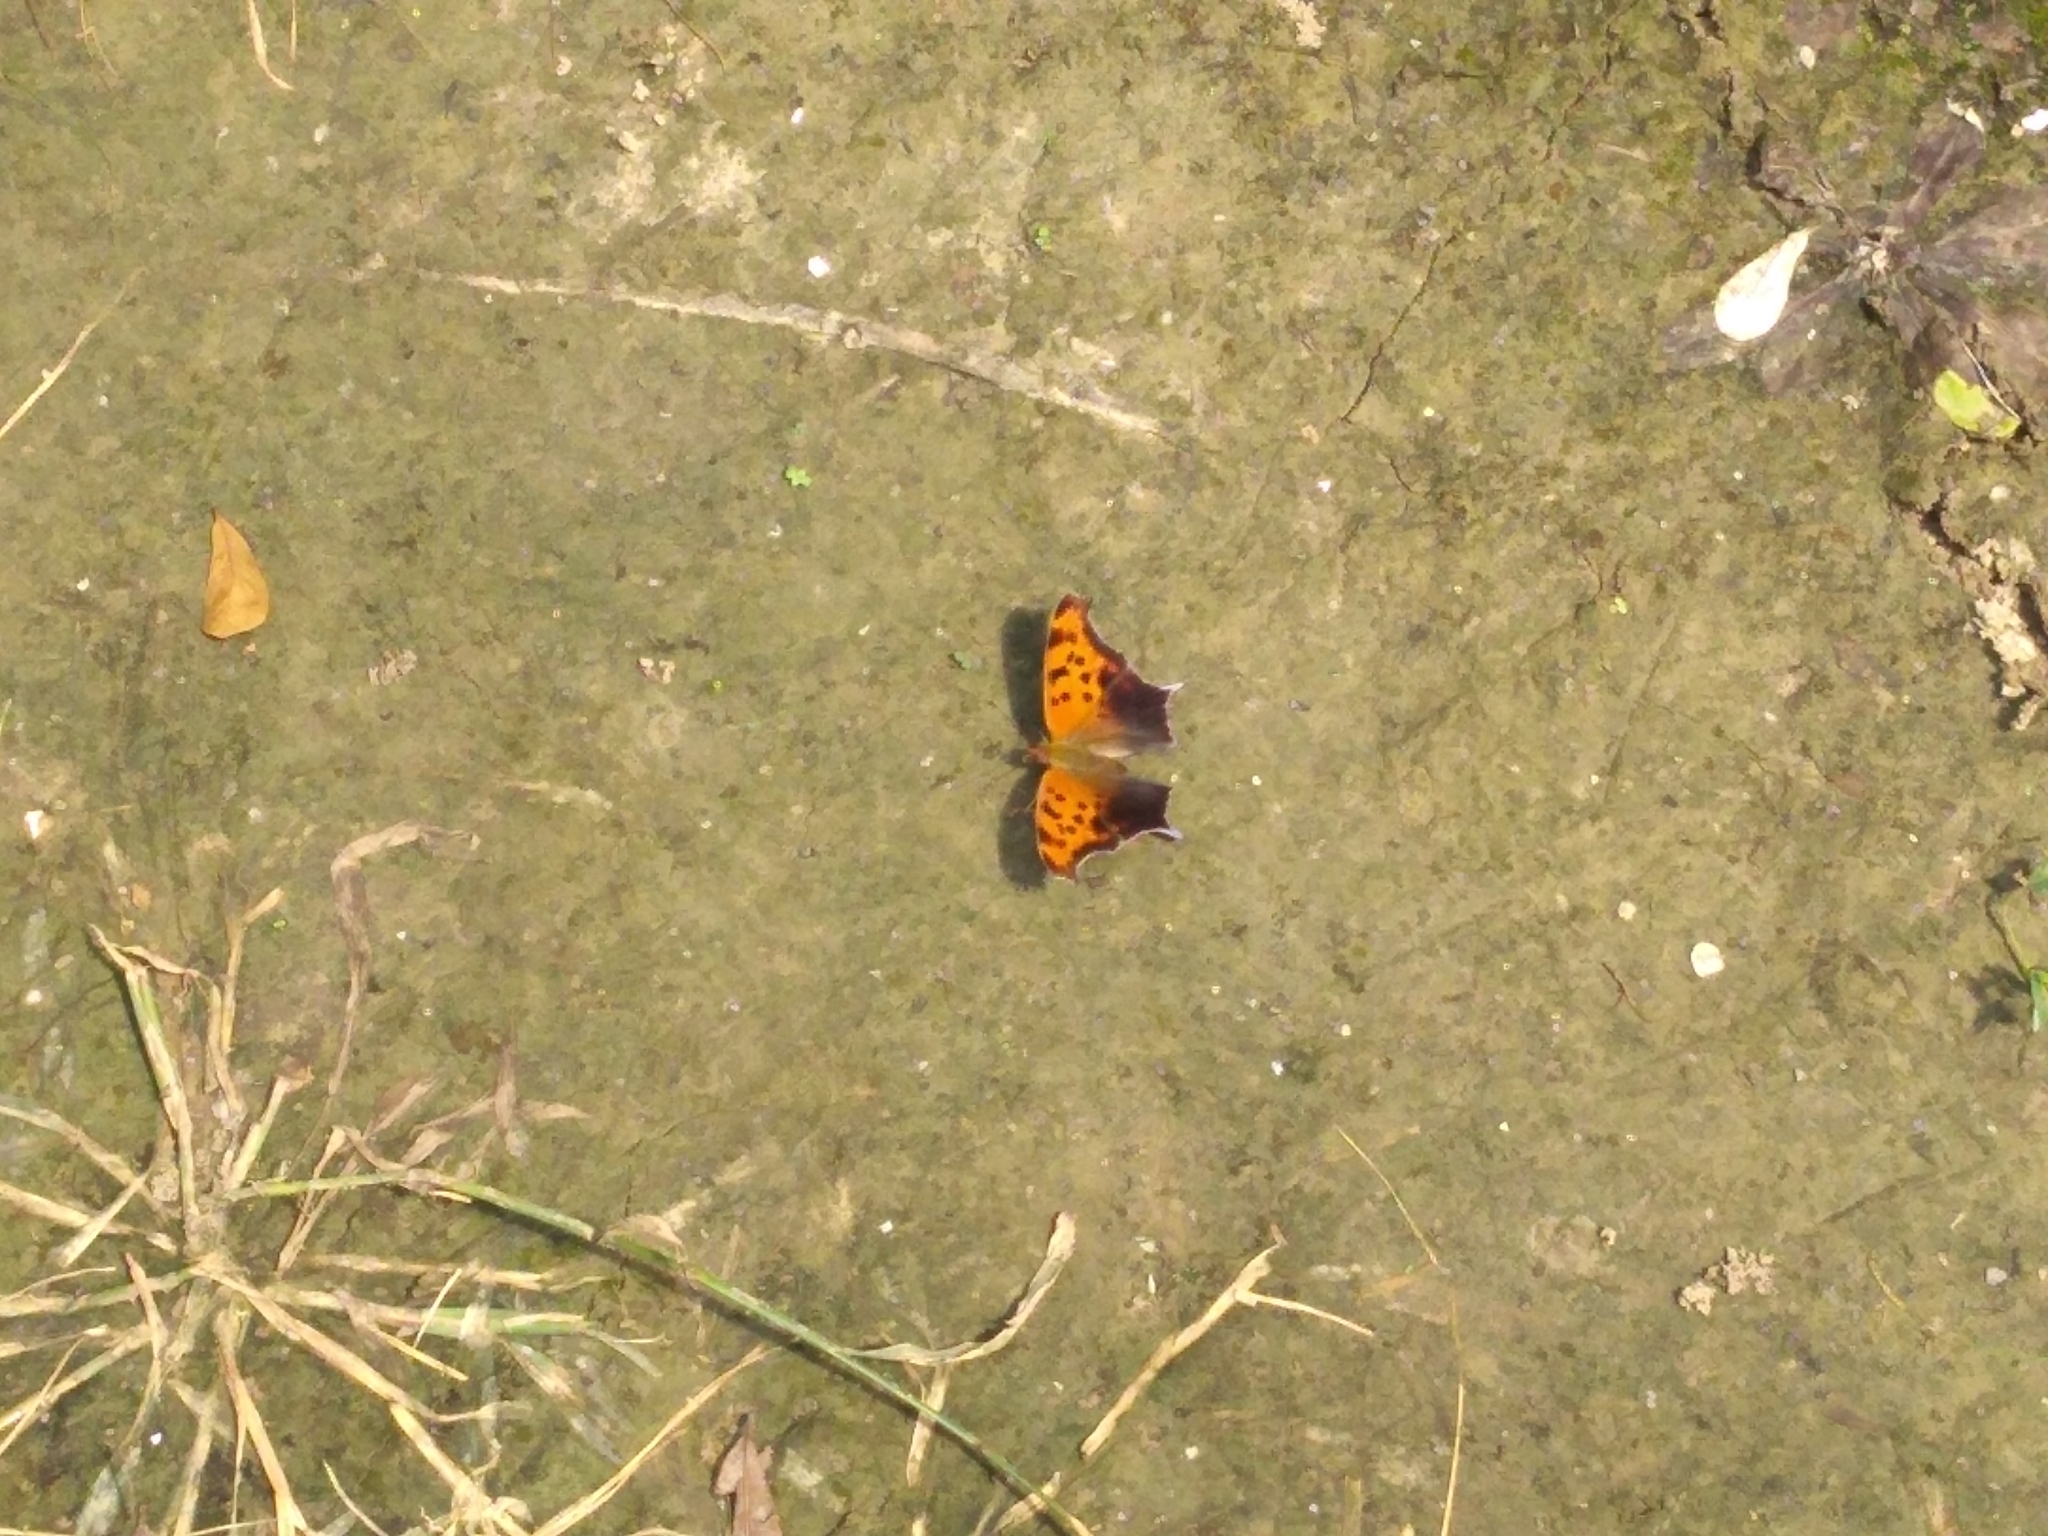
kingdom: Animalia
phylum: Arthropoda
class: Insecta
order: Lepidoptera
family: Nymphalidae
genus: Polygonia
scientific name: Polygonia interrogationis
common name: Question mark
